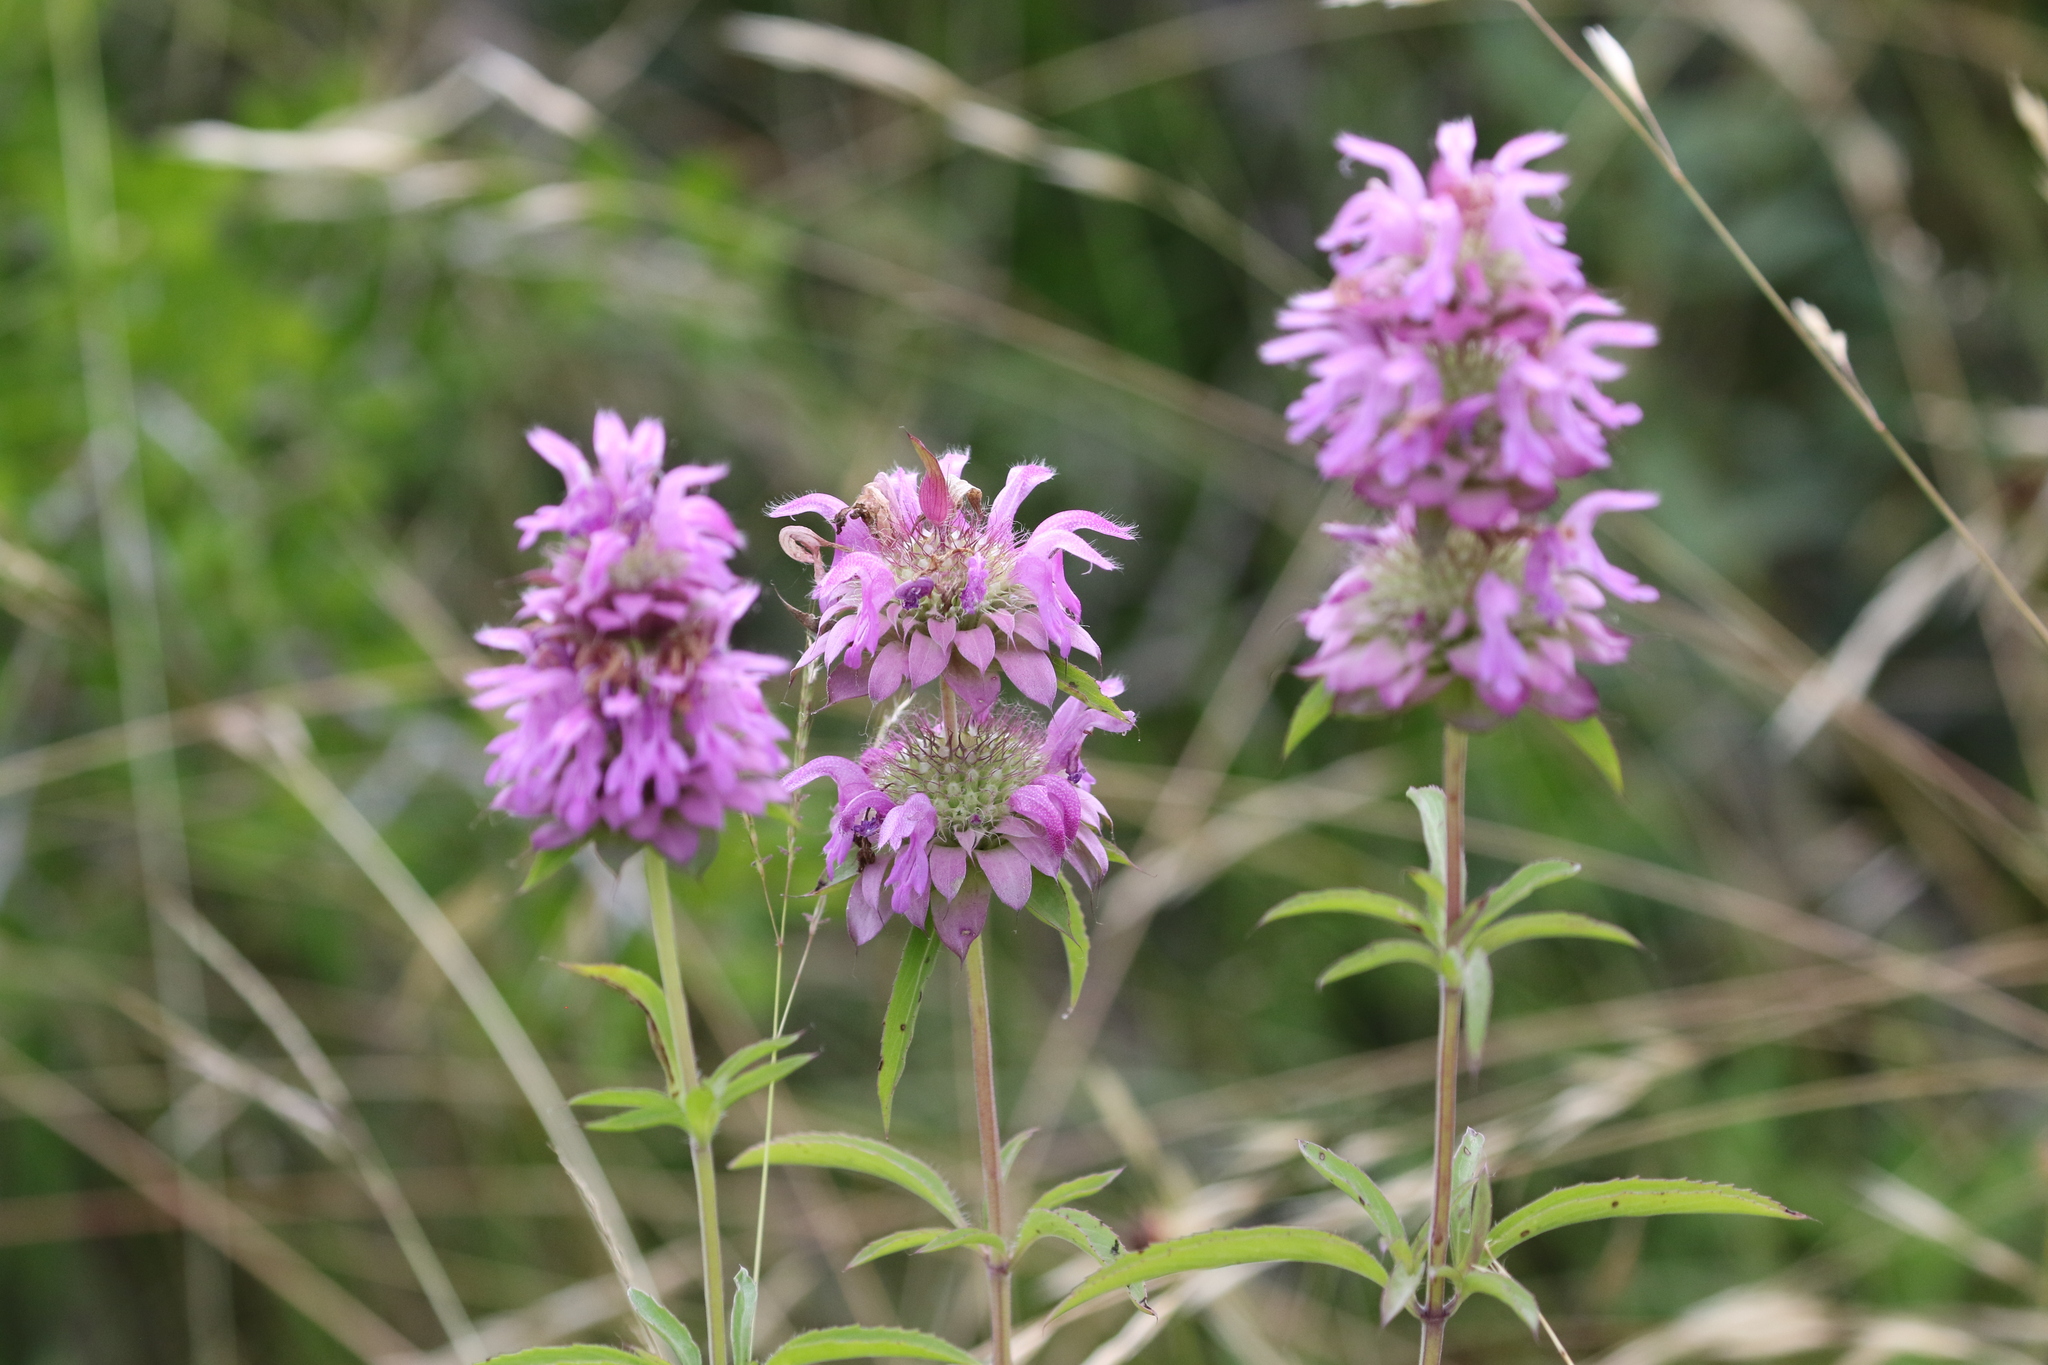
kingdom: Plantae
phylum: Tracheophyta
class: Magnoliopsida
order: Lamiales
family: Lamiaceae
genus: Monarda
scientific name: Monarda citriodora
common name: Lemon beebalm
